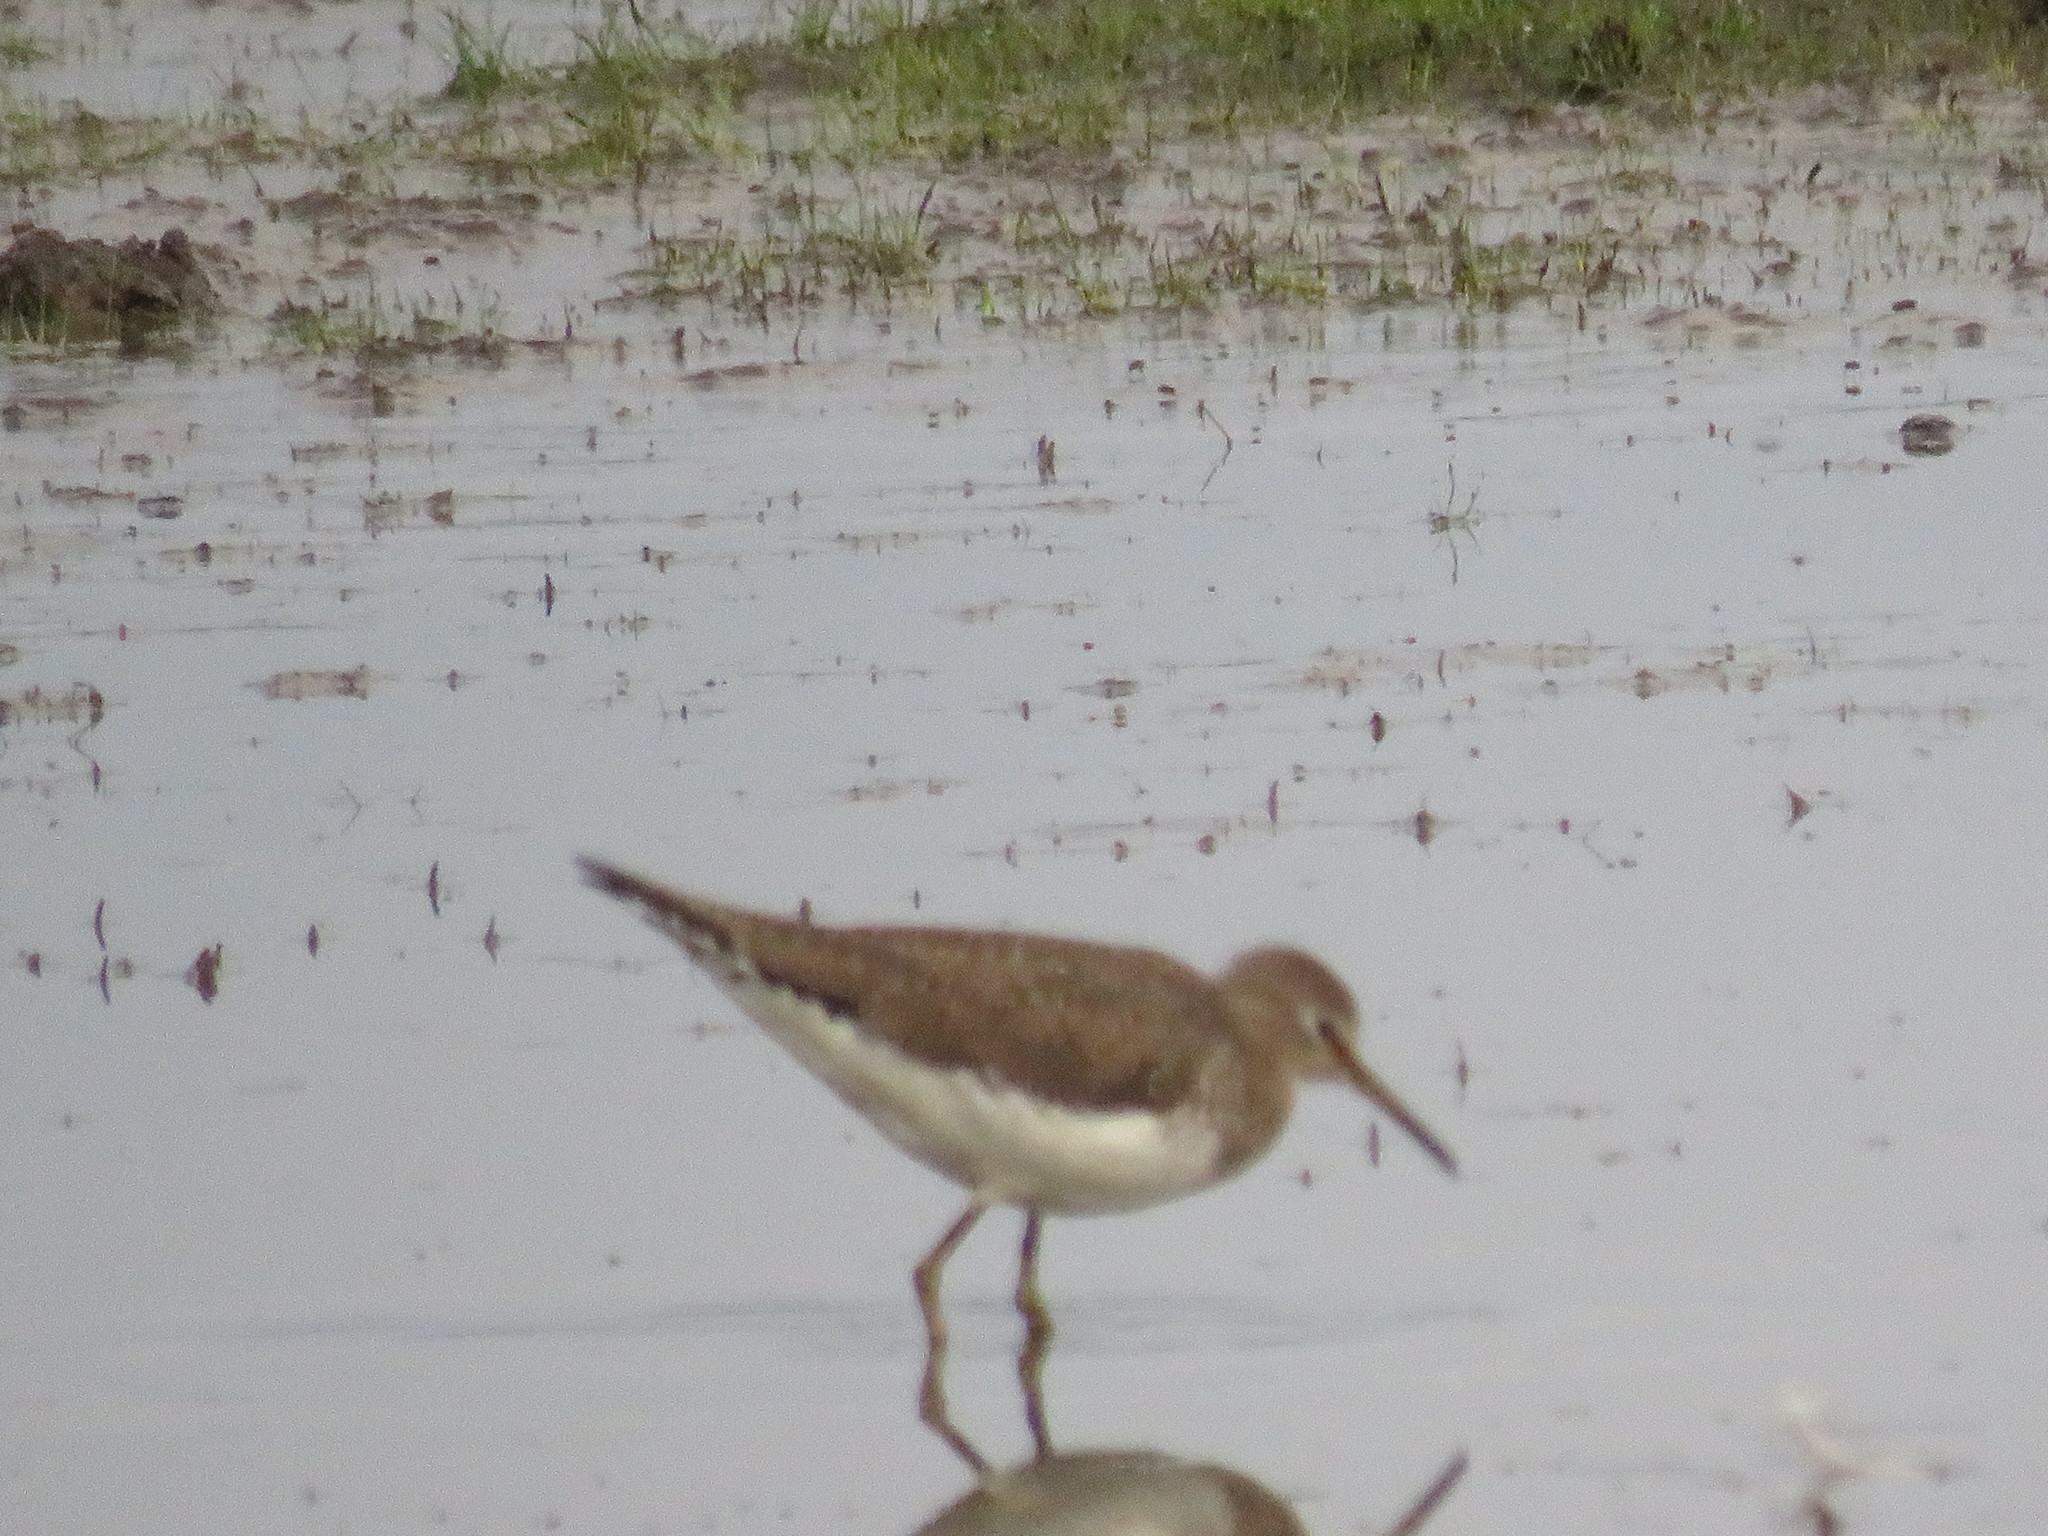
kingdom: Animalia
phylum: Chordata
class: Aves
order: Charadriiformes
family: Scolopacidae
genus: Tringa
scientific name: Tringa solitaria
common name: Solitary sandpiper
